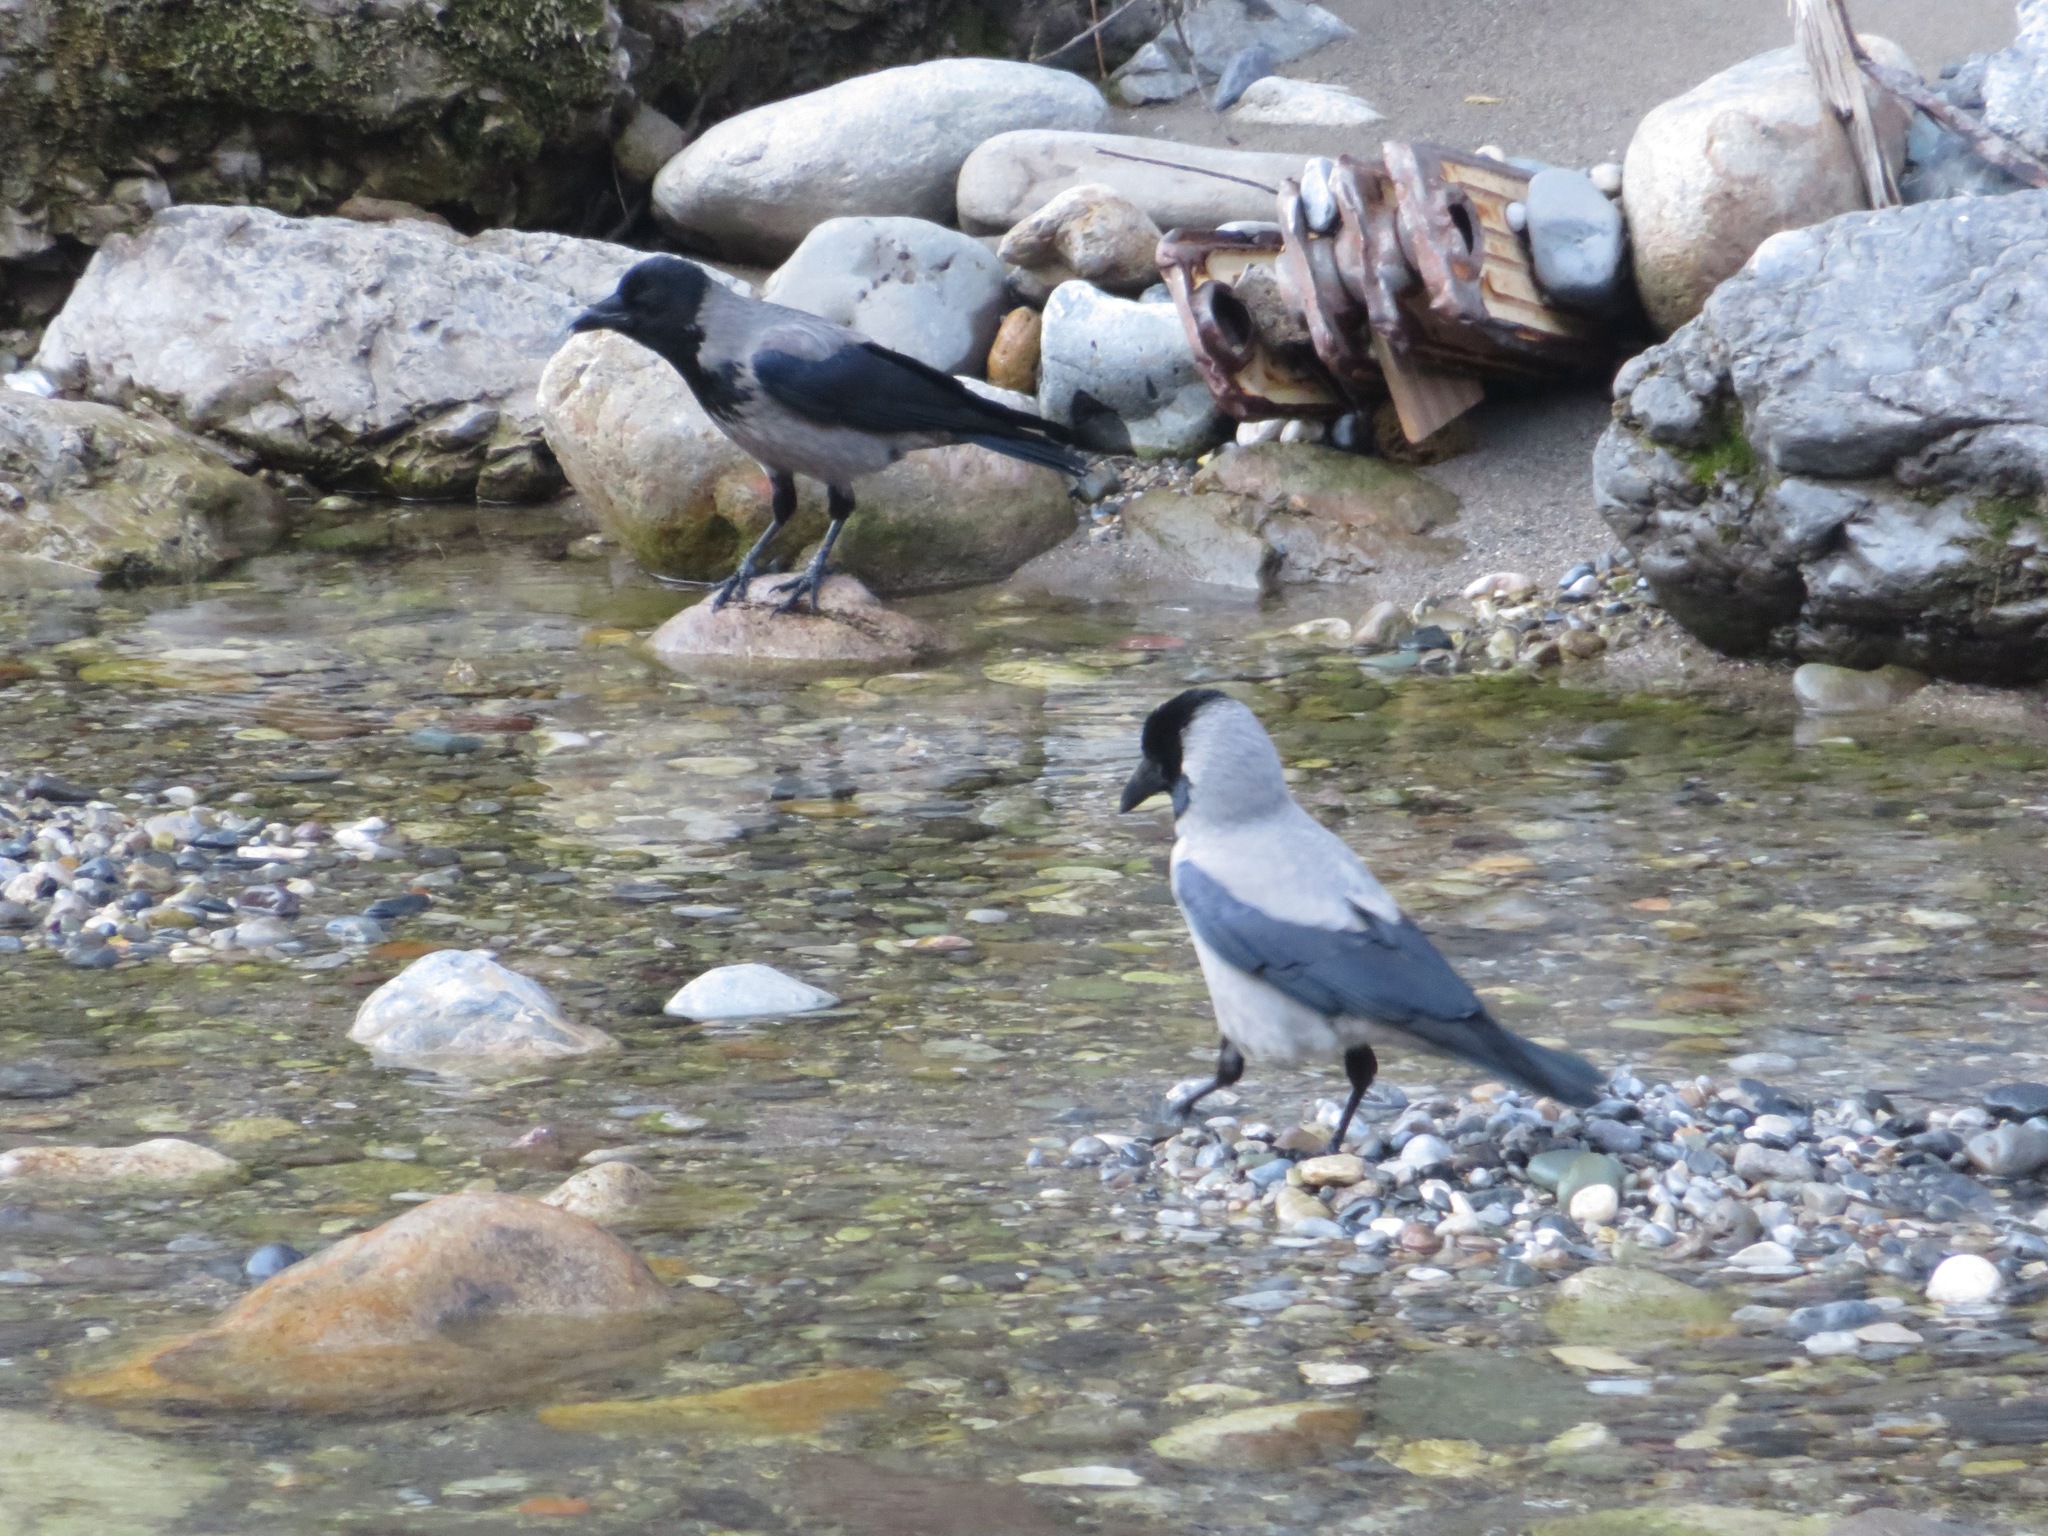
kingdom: Animalia
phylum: Chordata
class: Aves
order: Passeriformes
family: Corvidae
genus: Corvus
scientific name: Corvus cornix
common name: Hooded crow
